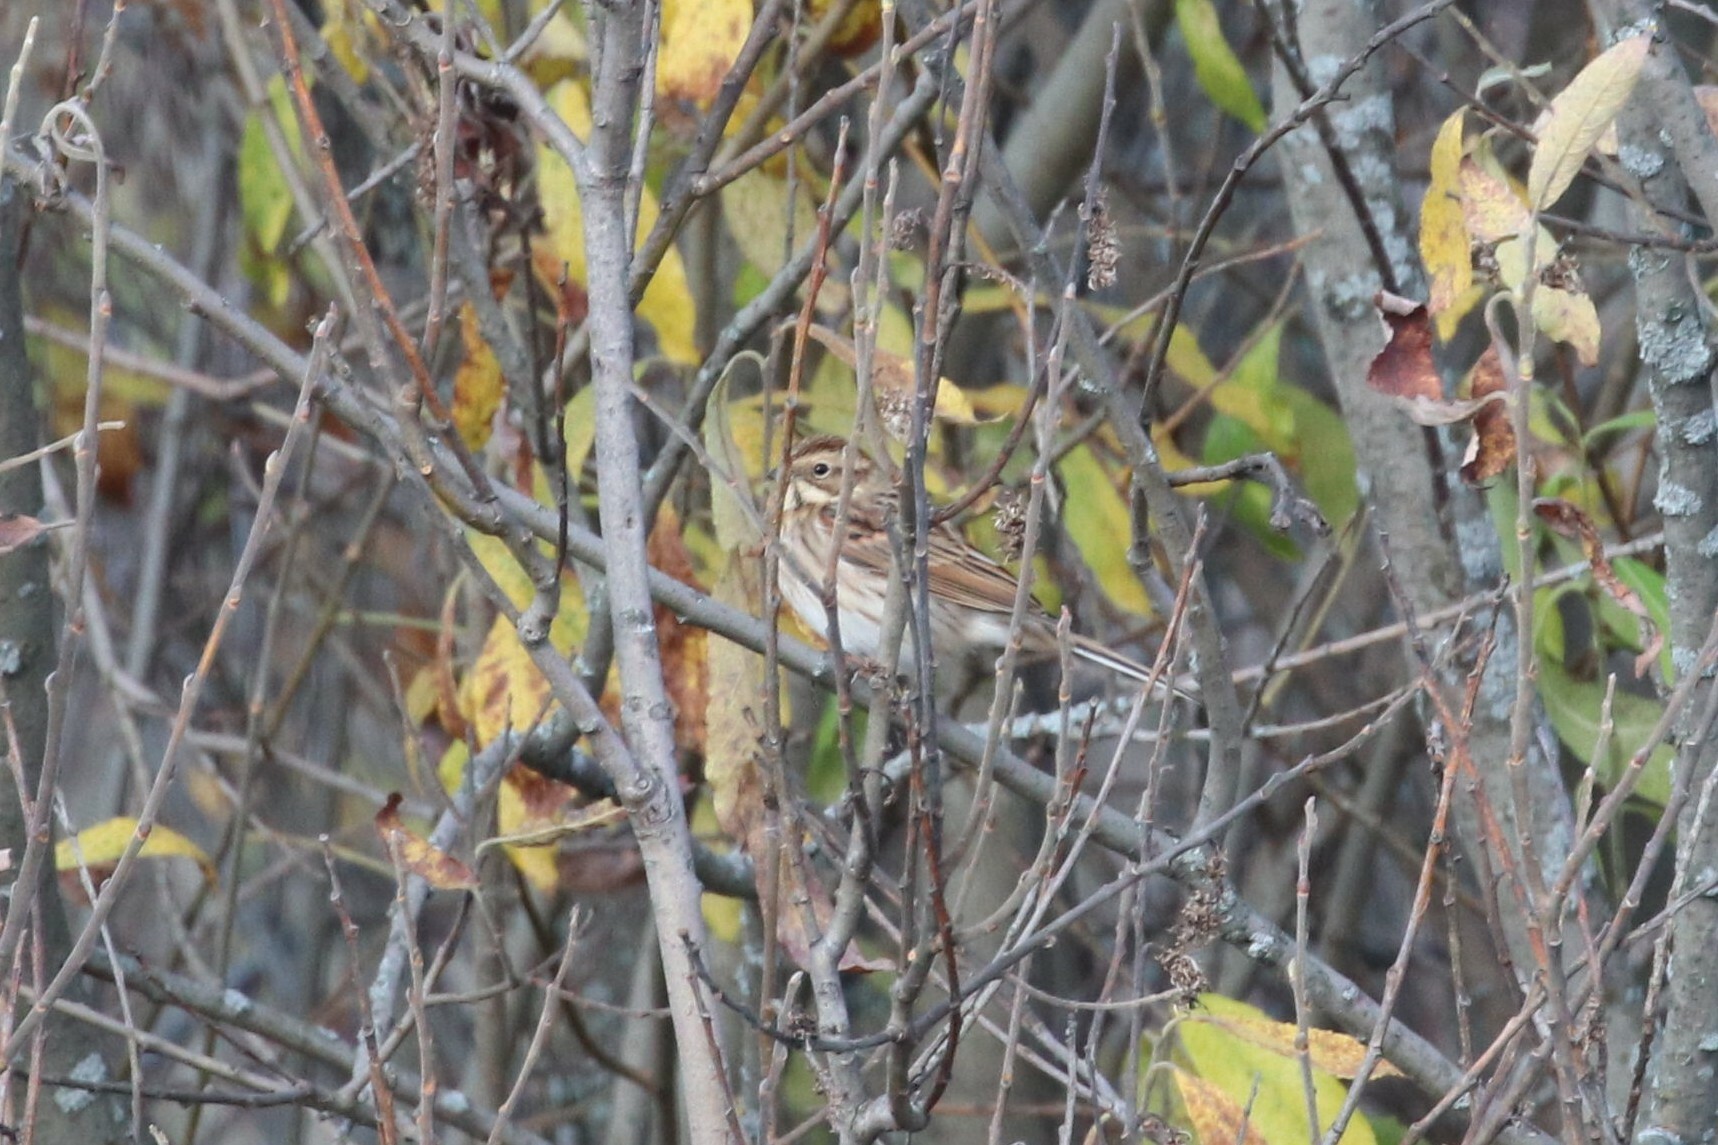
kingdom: Animalia
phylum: Chordata
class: Aves
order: Passeriformes
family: Emberizidae
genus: Emberiza
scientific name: Emberiza schoeniclus
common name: Reed bunting
